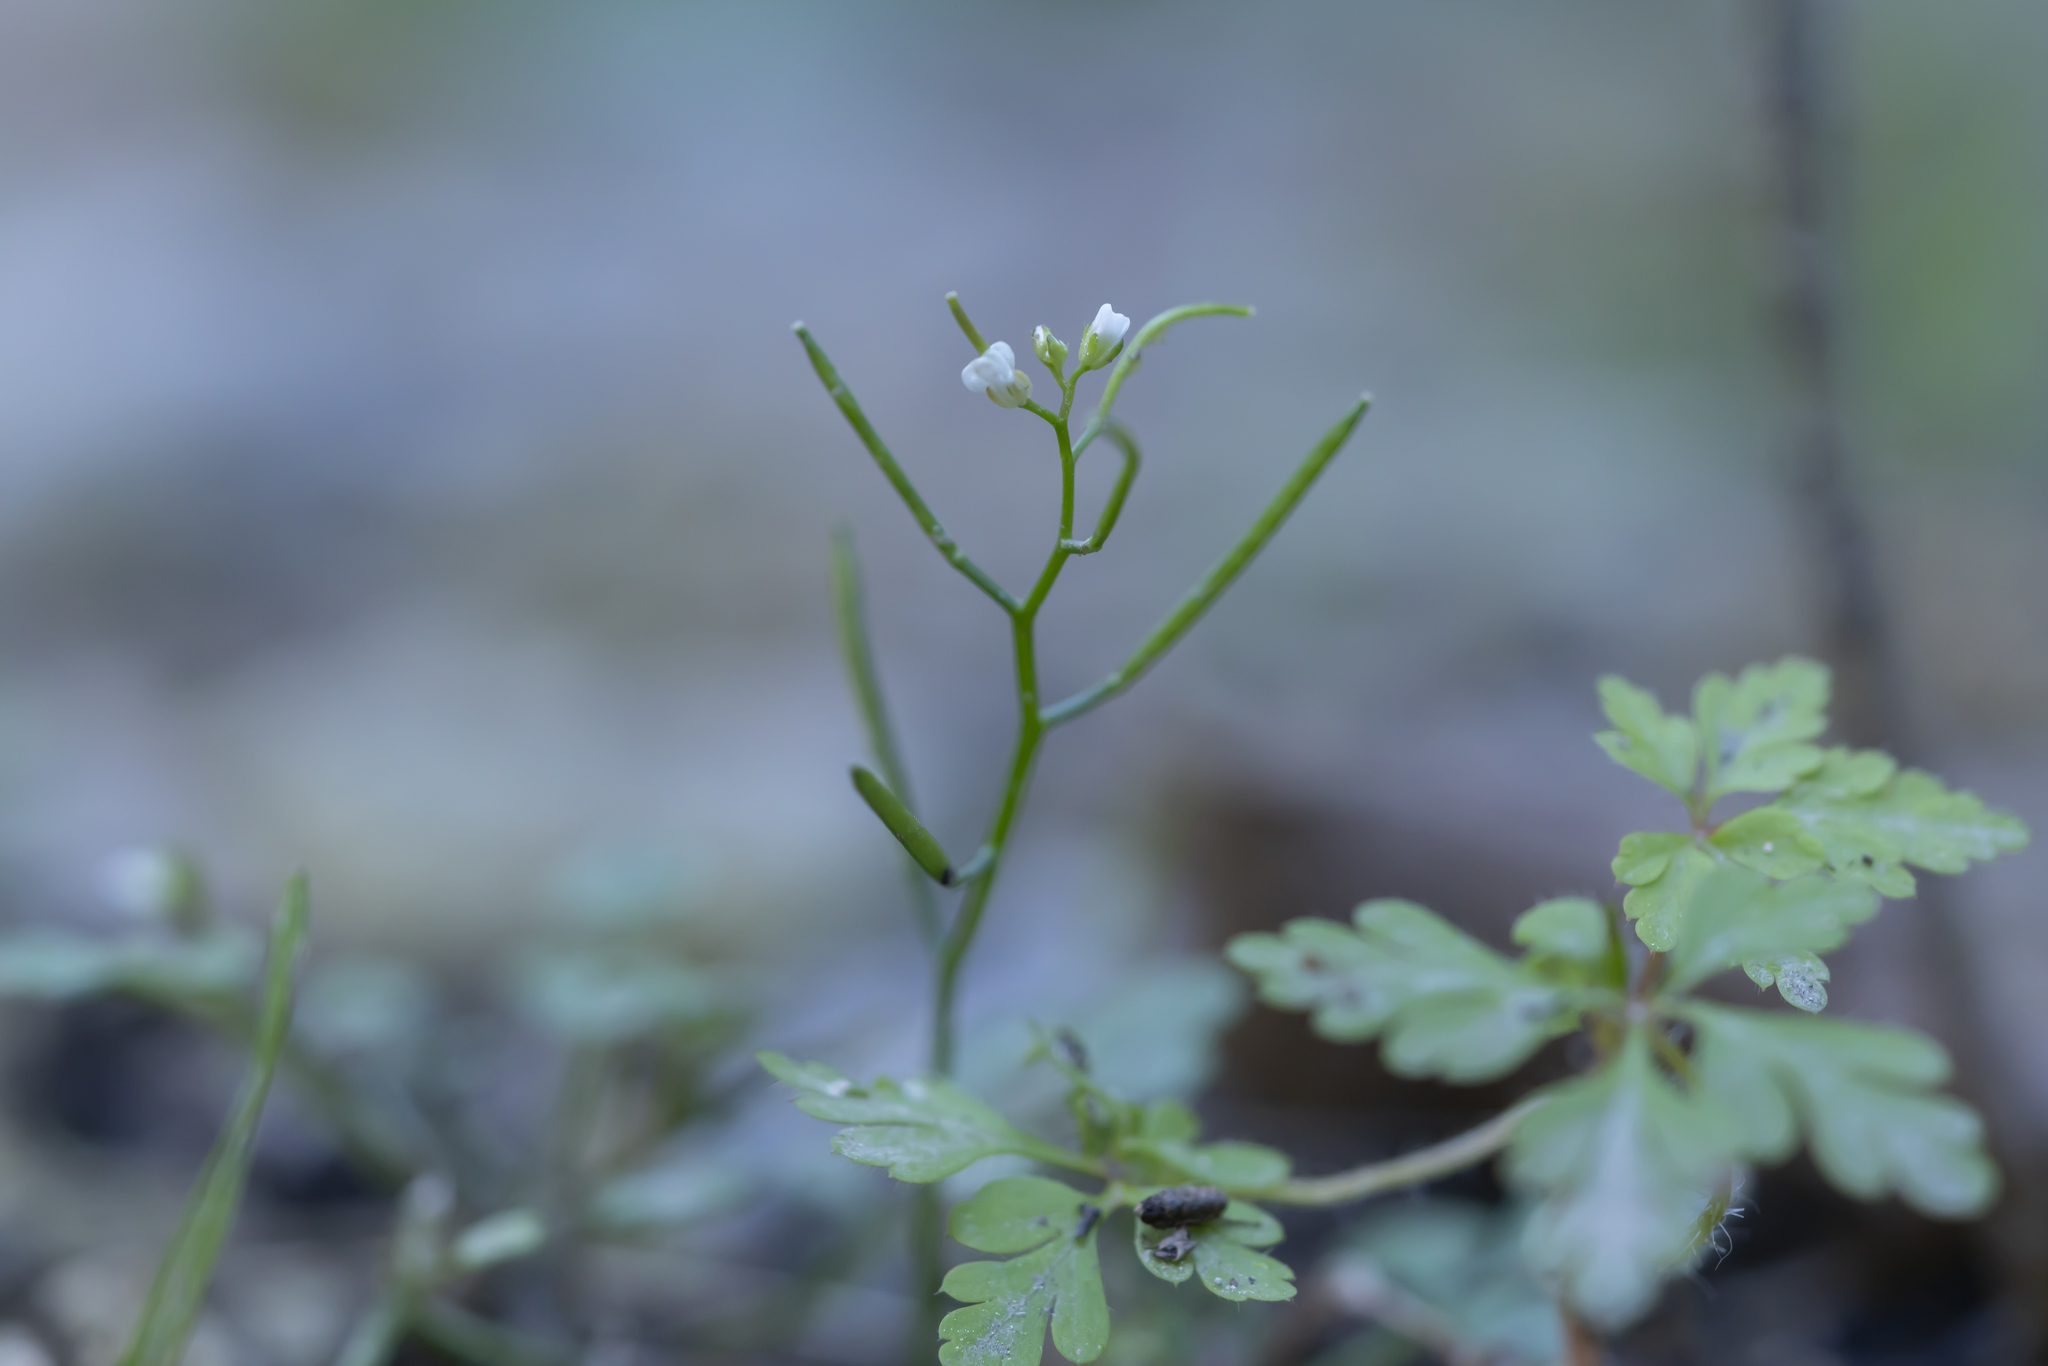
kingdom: Plantae
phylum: Tracheophyta
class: Magnoliopsida
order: Brassicales
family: Brassicaceae
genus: Cardamine
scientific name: Cardamine hirsuta
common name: Hairy bittercress
